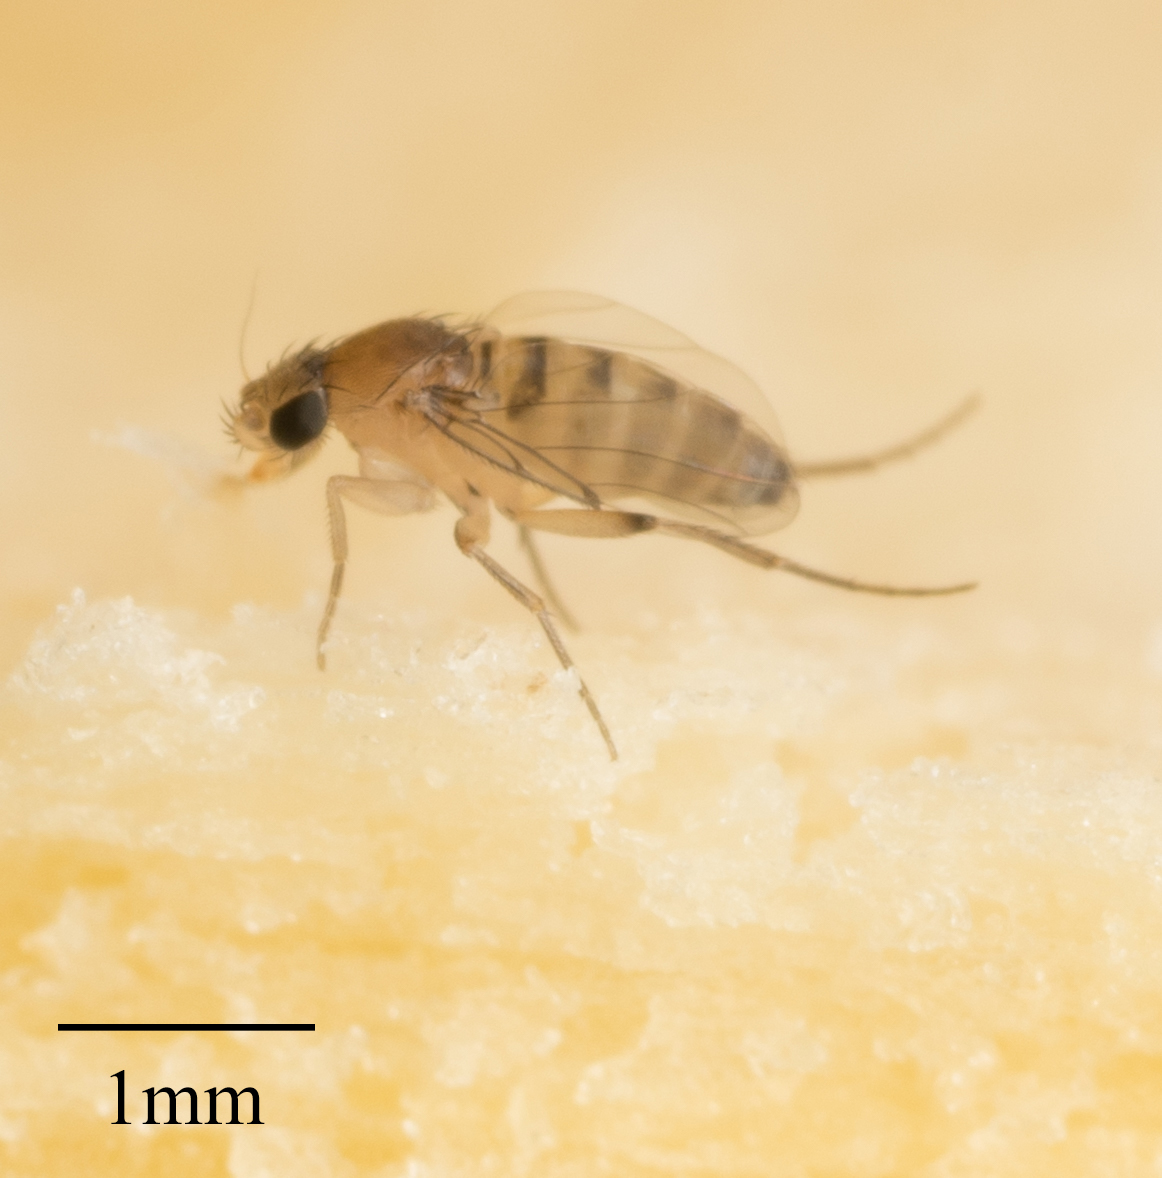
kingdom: Animalia
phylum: Arthropoda
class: Insecta
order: Diptera
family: Phoridae
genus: Megaselia
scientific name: Megaselia scalaris
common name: Scuttle fly
